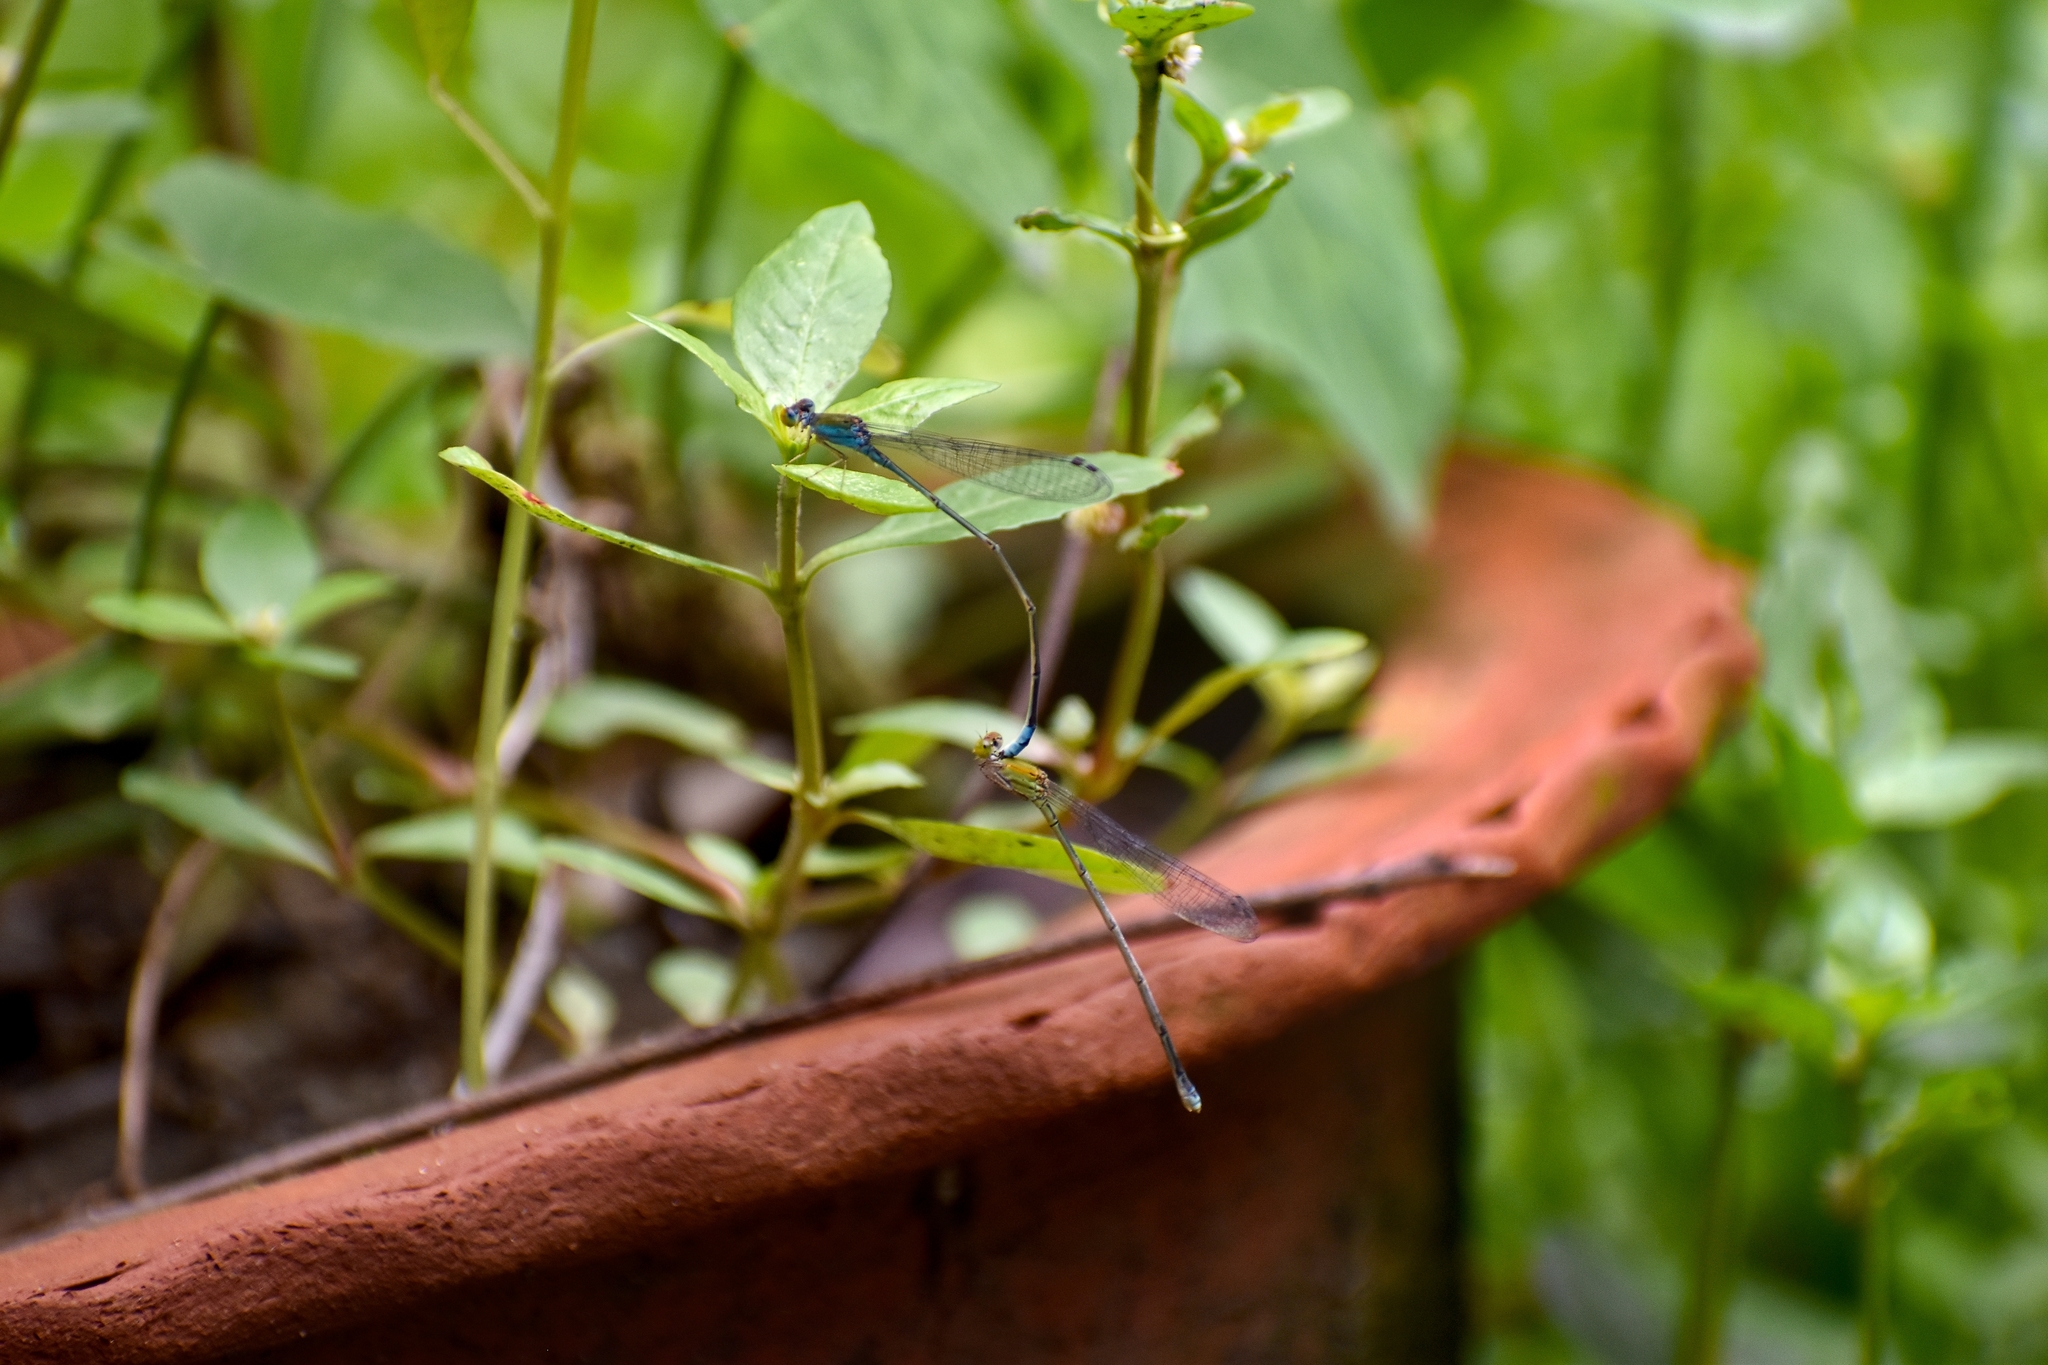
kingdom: Animalia
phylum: Arthropoda
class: Insecta
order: Odonata
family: Coenagrionidae
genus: Pseudagrion
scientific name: Pseudagrion rubriceps
